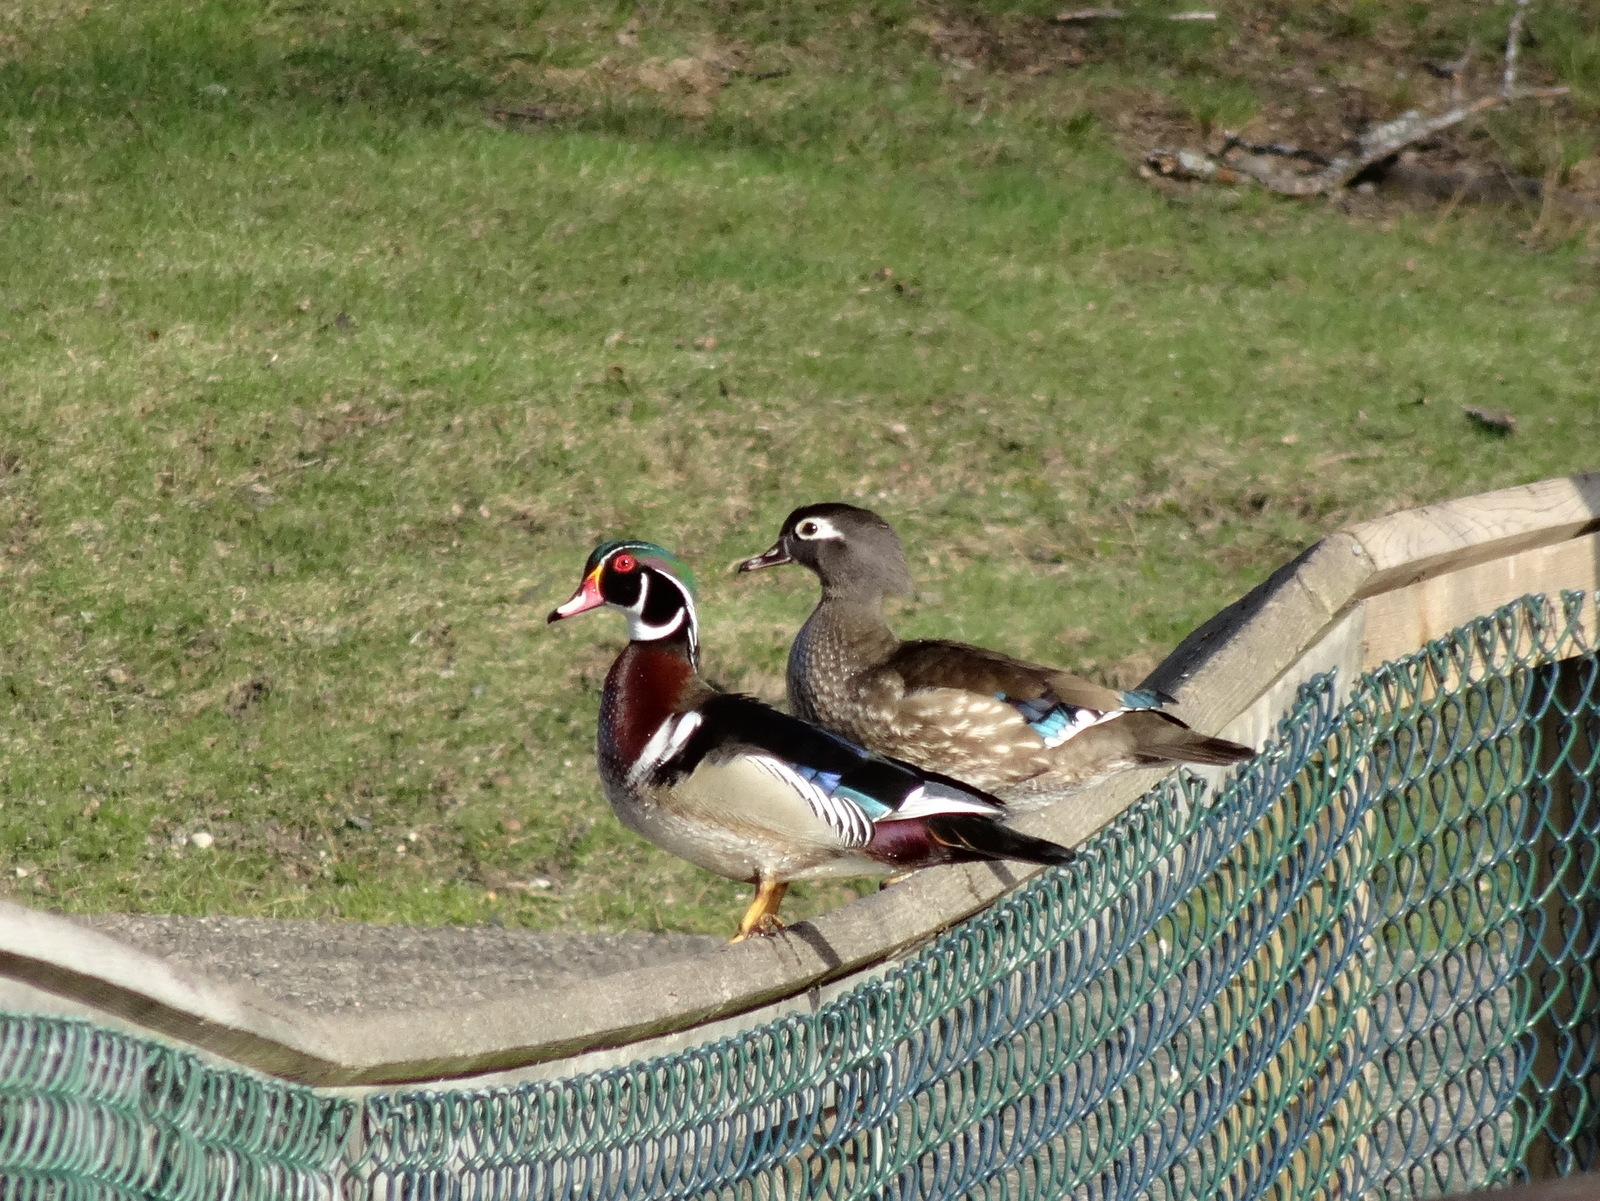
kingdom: Animalia
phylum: Chordata
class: Aves
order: Anseriformes
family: Anatidae
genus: Aix
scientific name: Aix sponsa
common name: Wood duck
